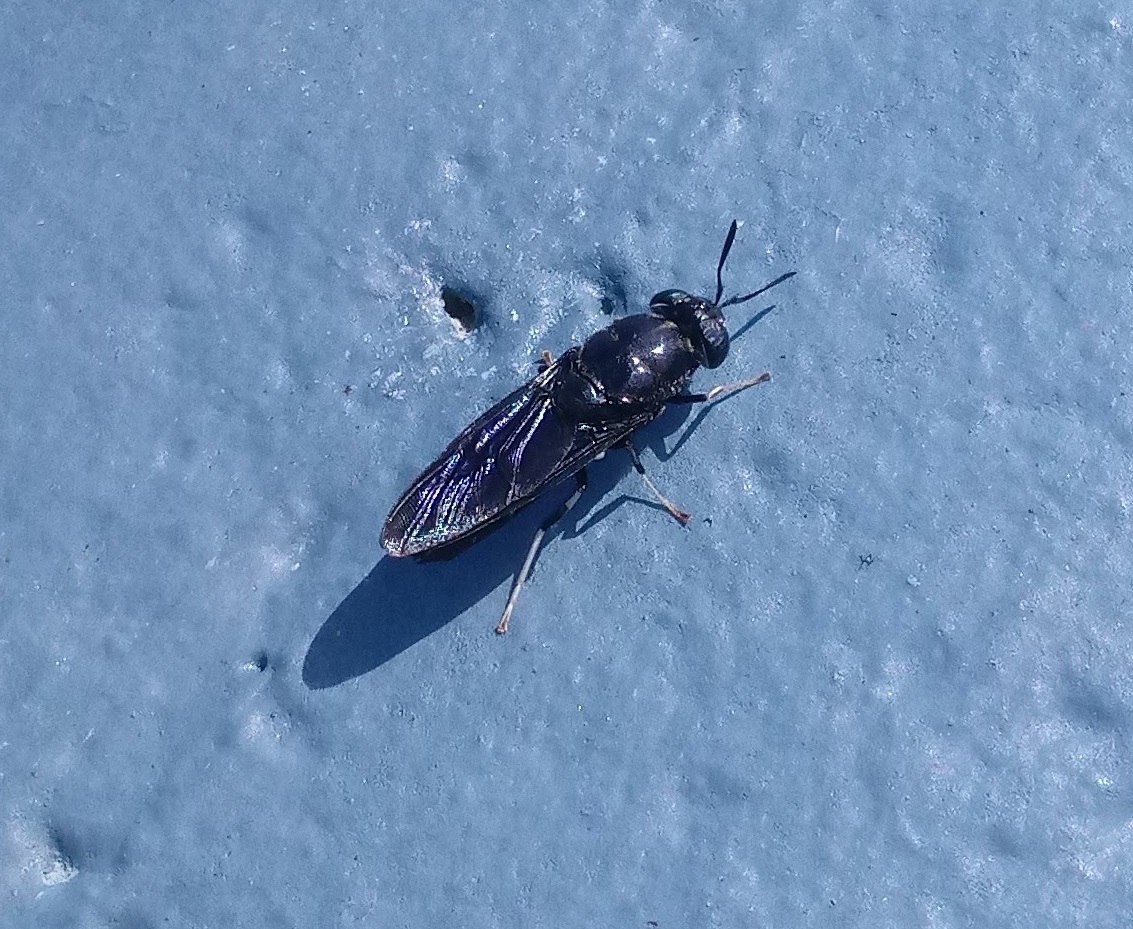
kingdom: Animalia
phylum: Arthropoda
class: Insecta
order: Diptera
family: Stratiomyidae
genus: Hermetia
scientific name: Hermetia illucens
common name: Black soldier fly
